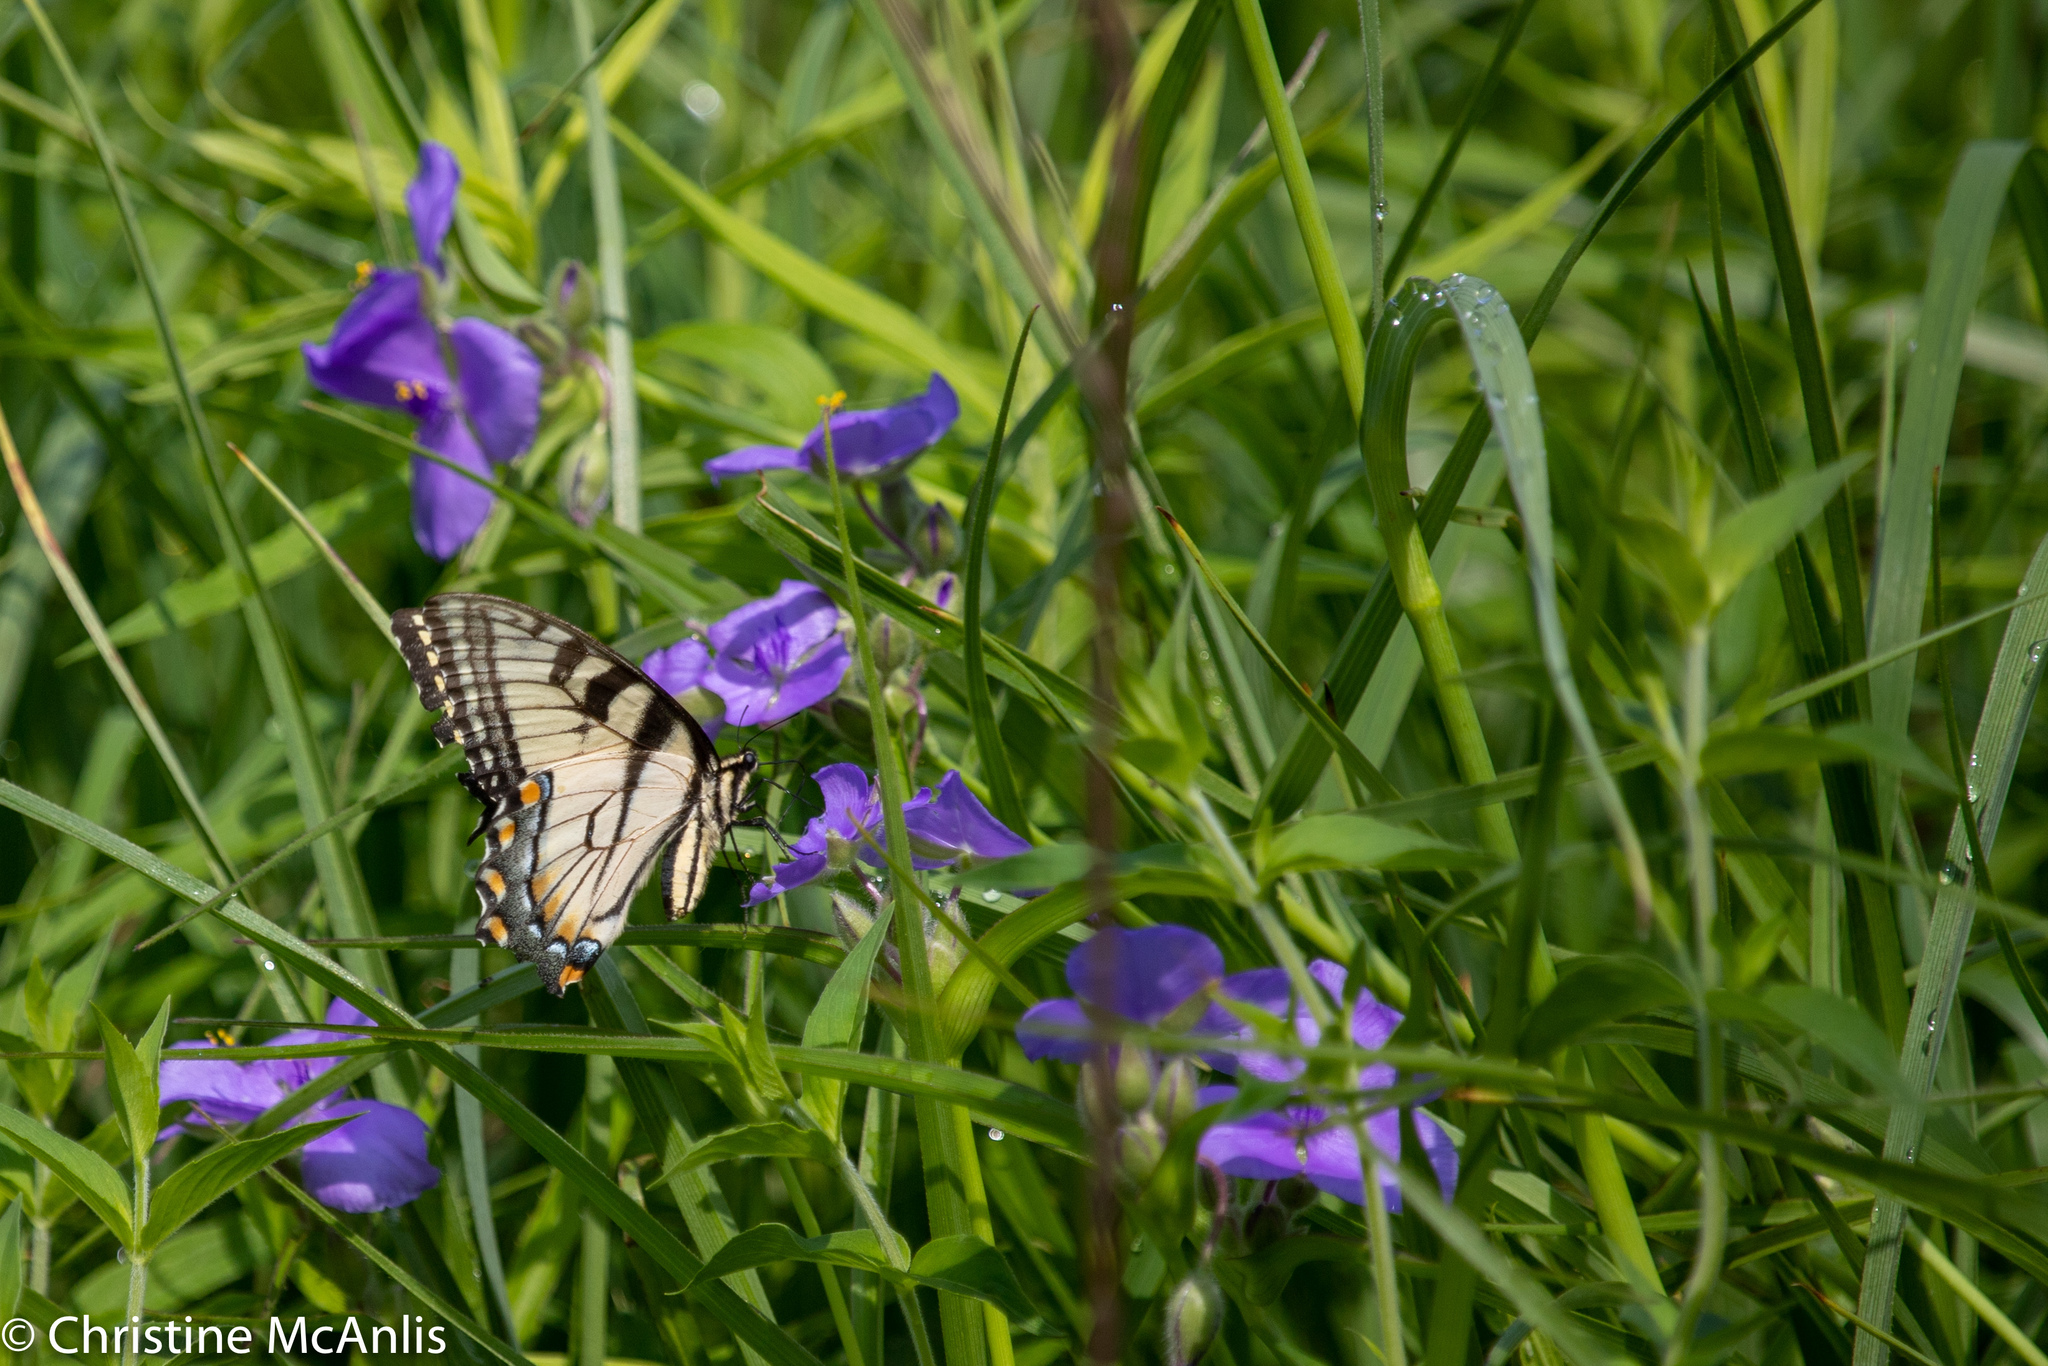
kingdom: Animalia
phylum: Arthropoda
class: Insecta
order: Lepidoptera
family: Papilionidae
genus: Papilio
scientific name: Papilio glaucus
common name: Tiger swallowtail
